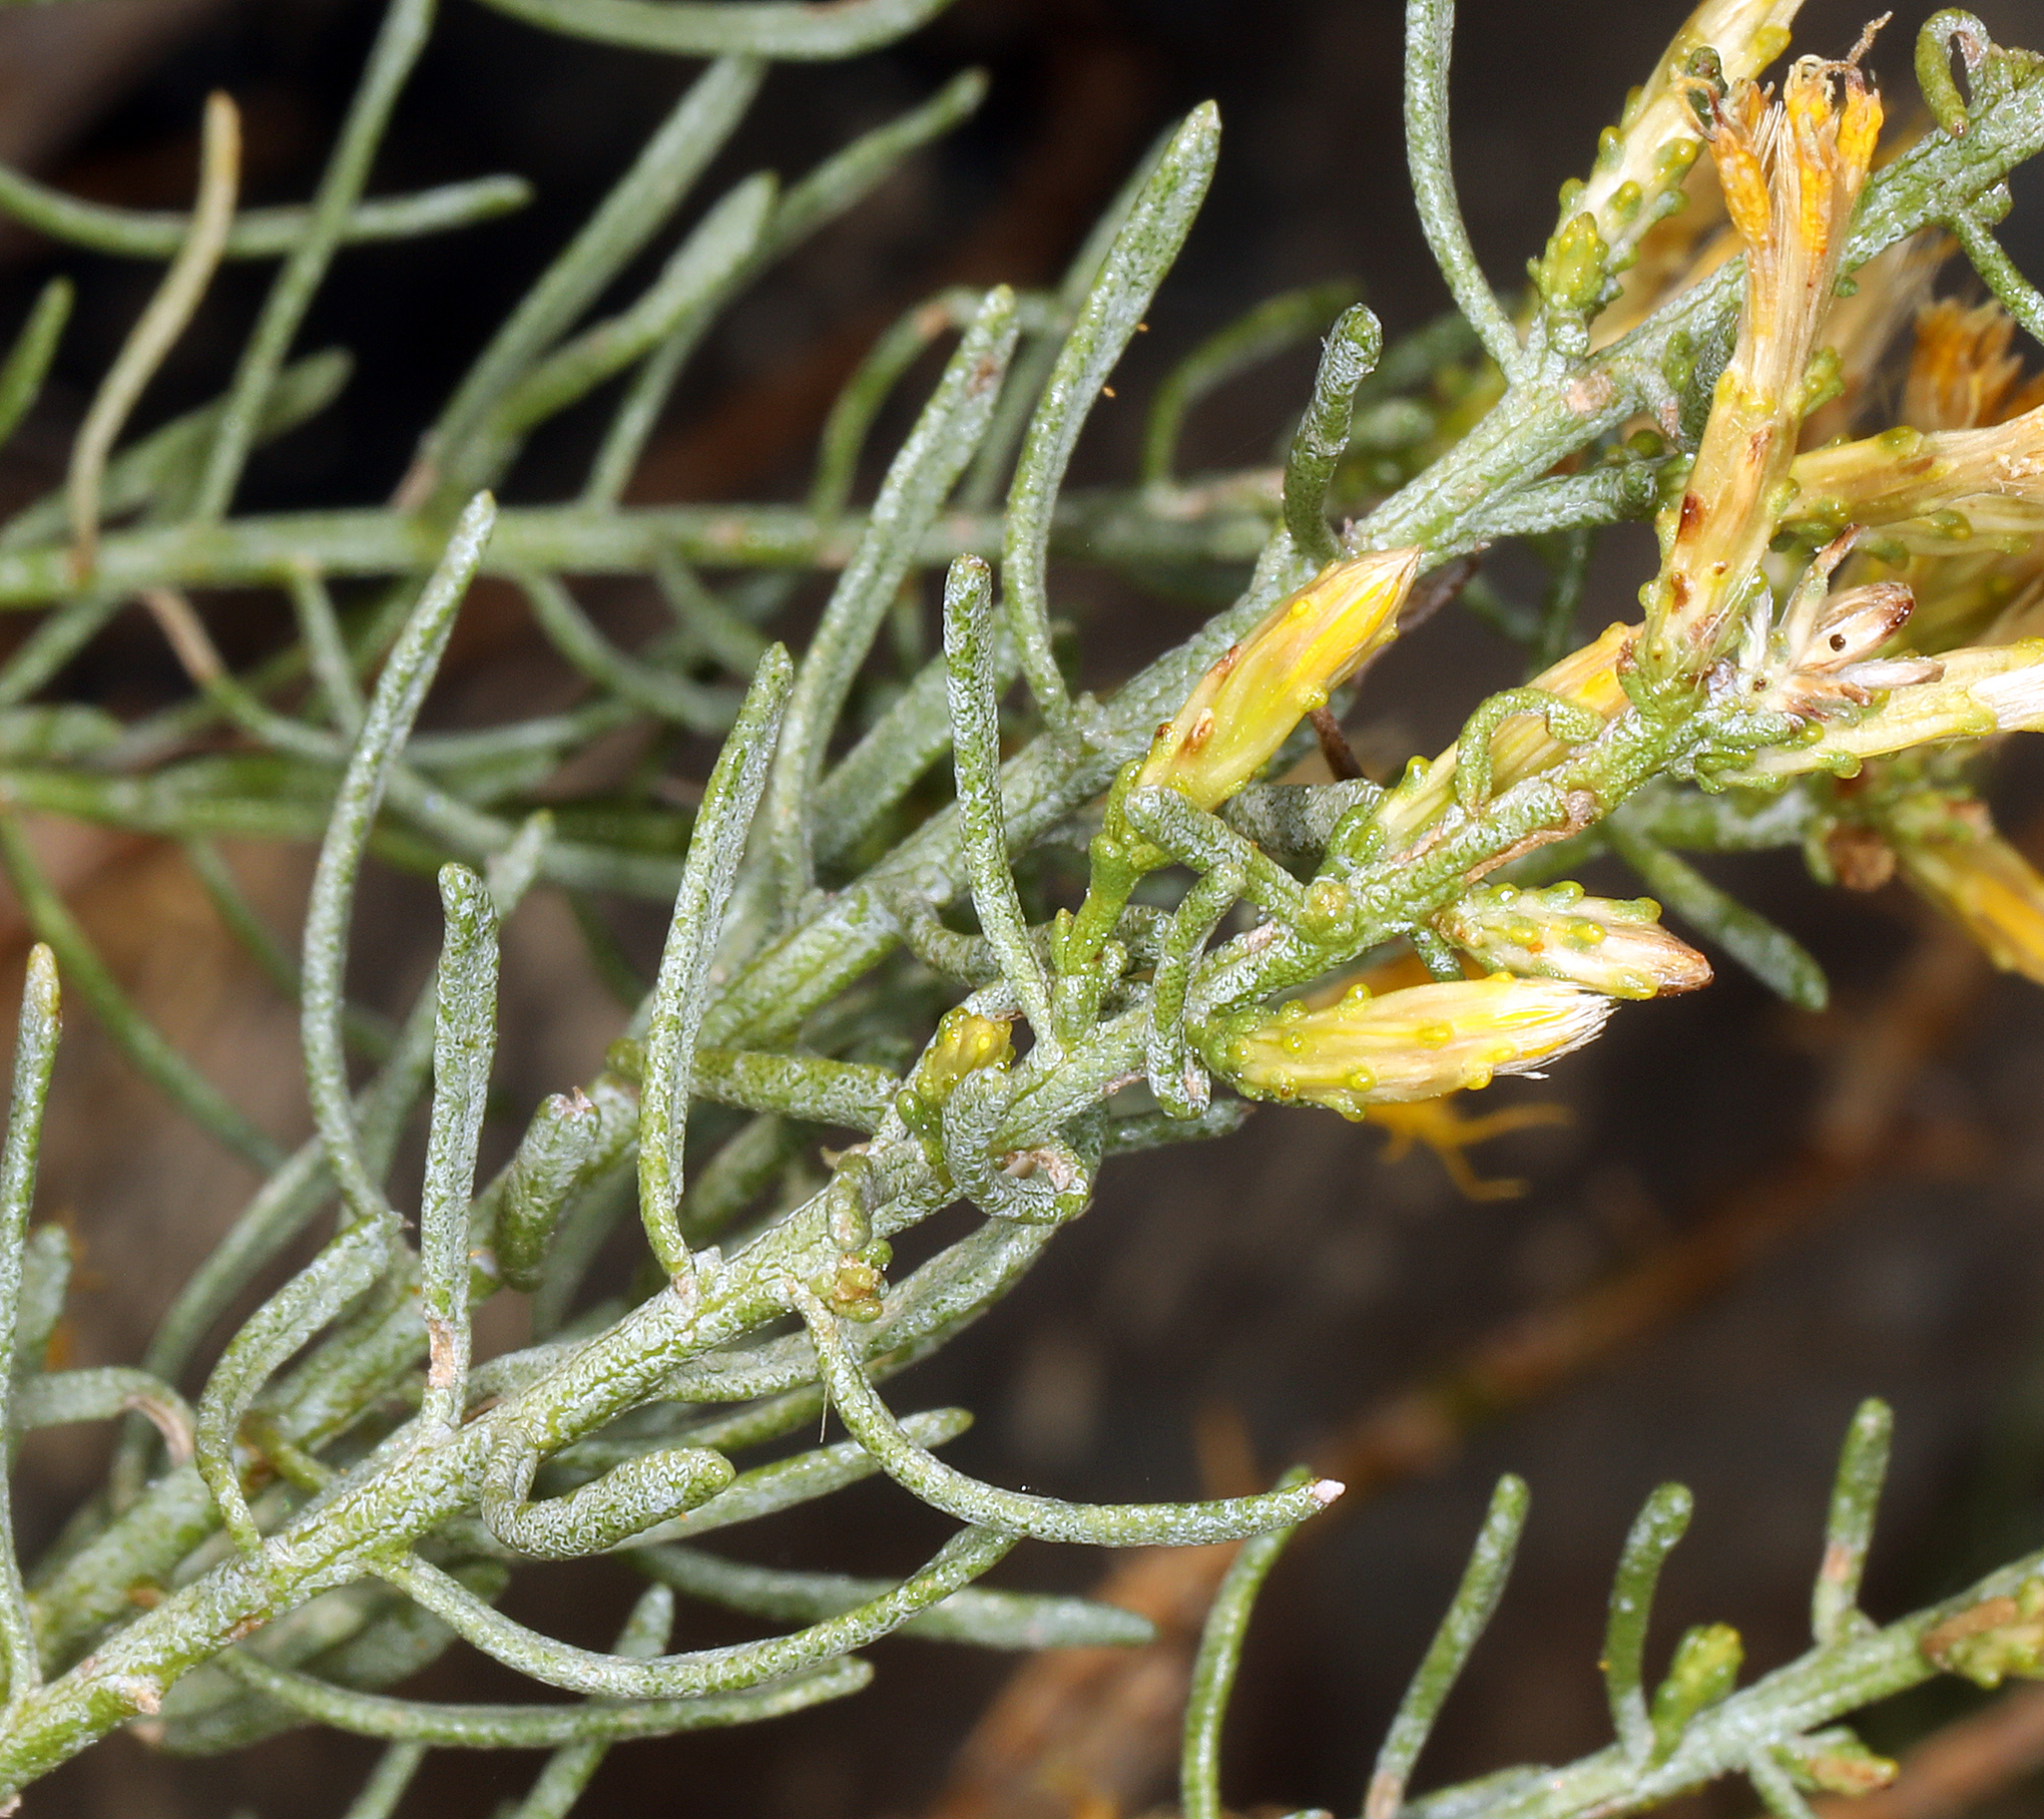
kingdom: Plantae
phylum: Tracheophyta
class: Magnoliopsida
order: Asterales
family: Asteraceae
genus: Ericameria
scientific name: Ericameria teretifolia
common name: Round-leaf rabbitbrush
